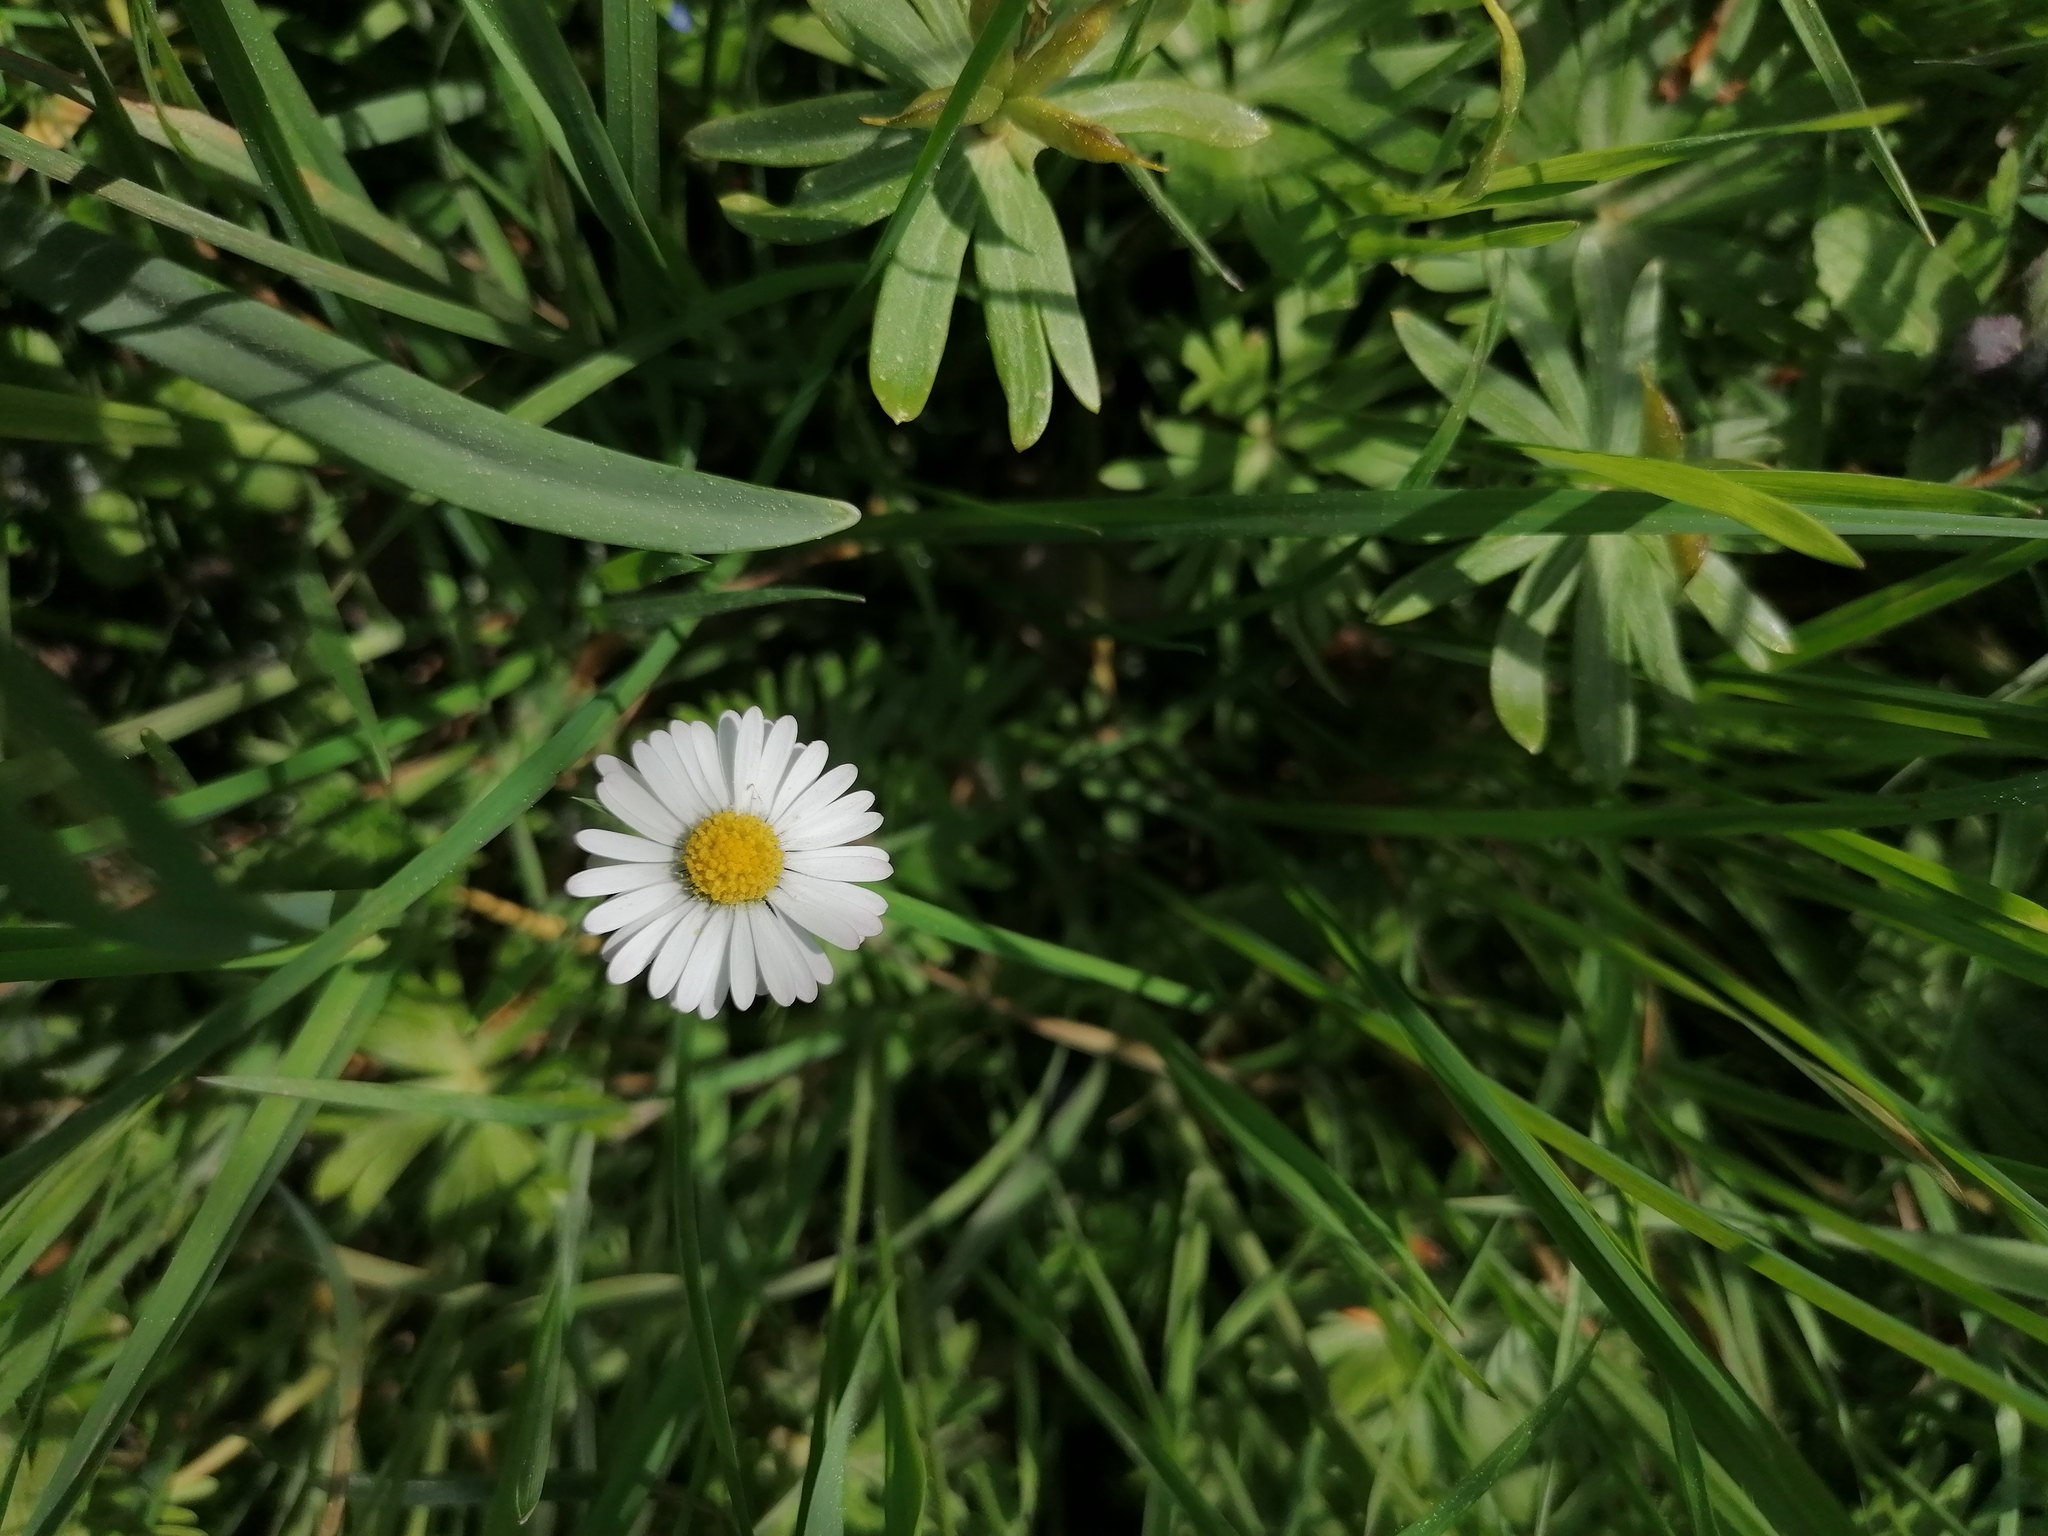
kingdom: Plantae
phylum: Tracheophyta
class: Magnoliopsida
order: Asterales
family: Asteraceae
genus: Bellis
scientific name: Bellis perennis
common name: Lawndaisy
